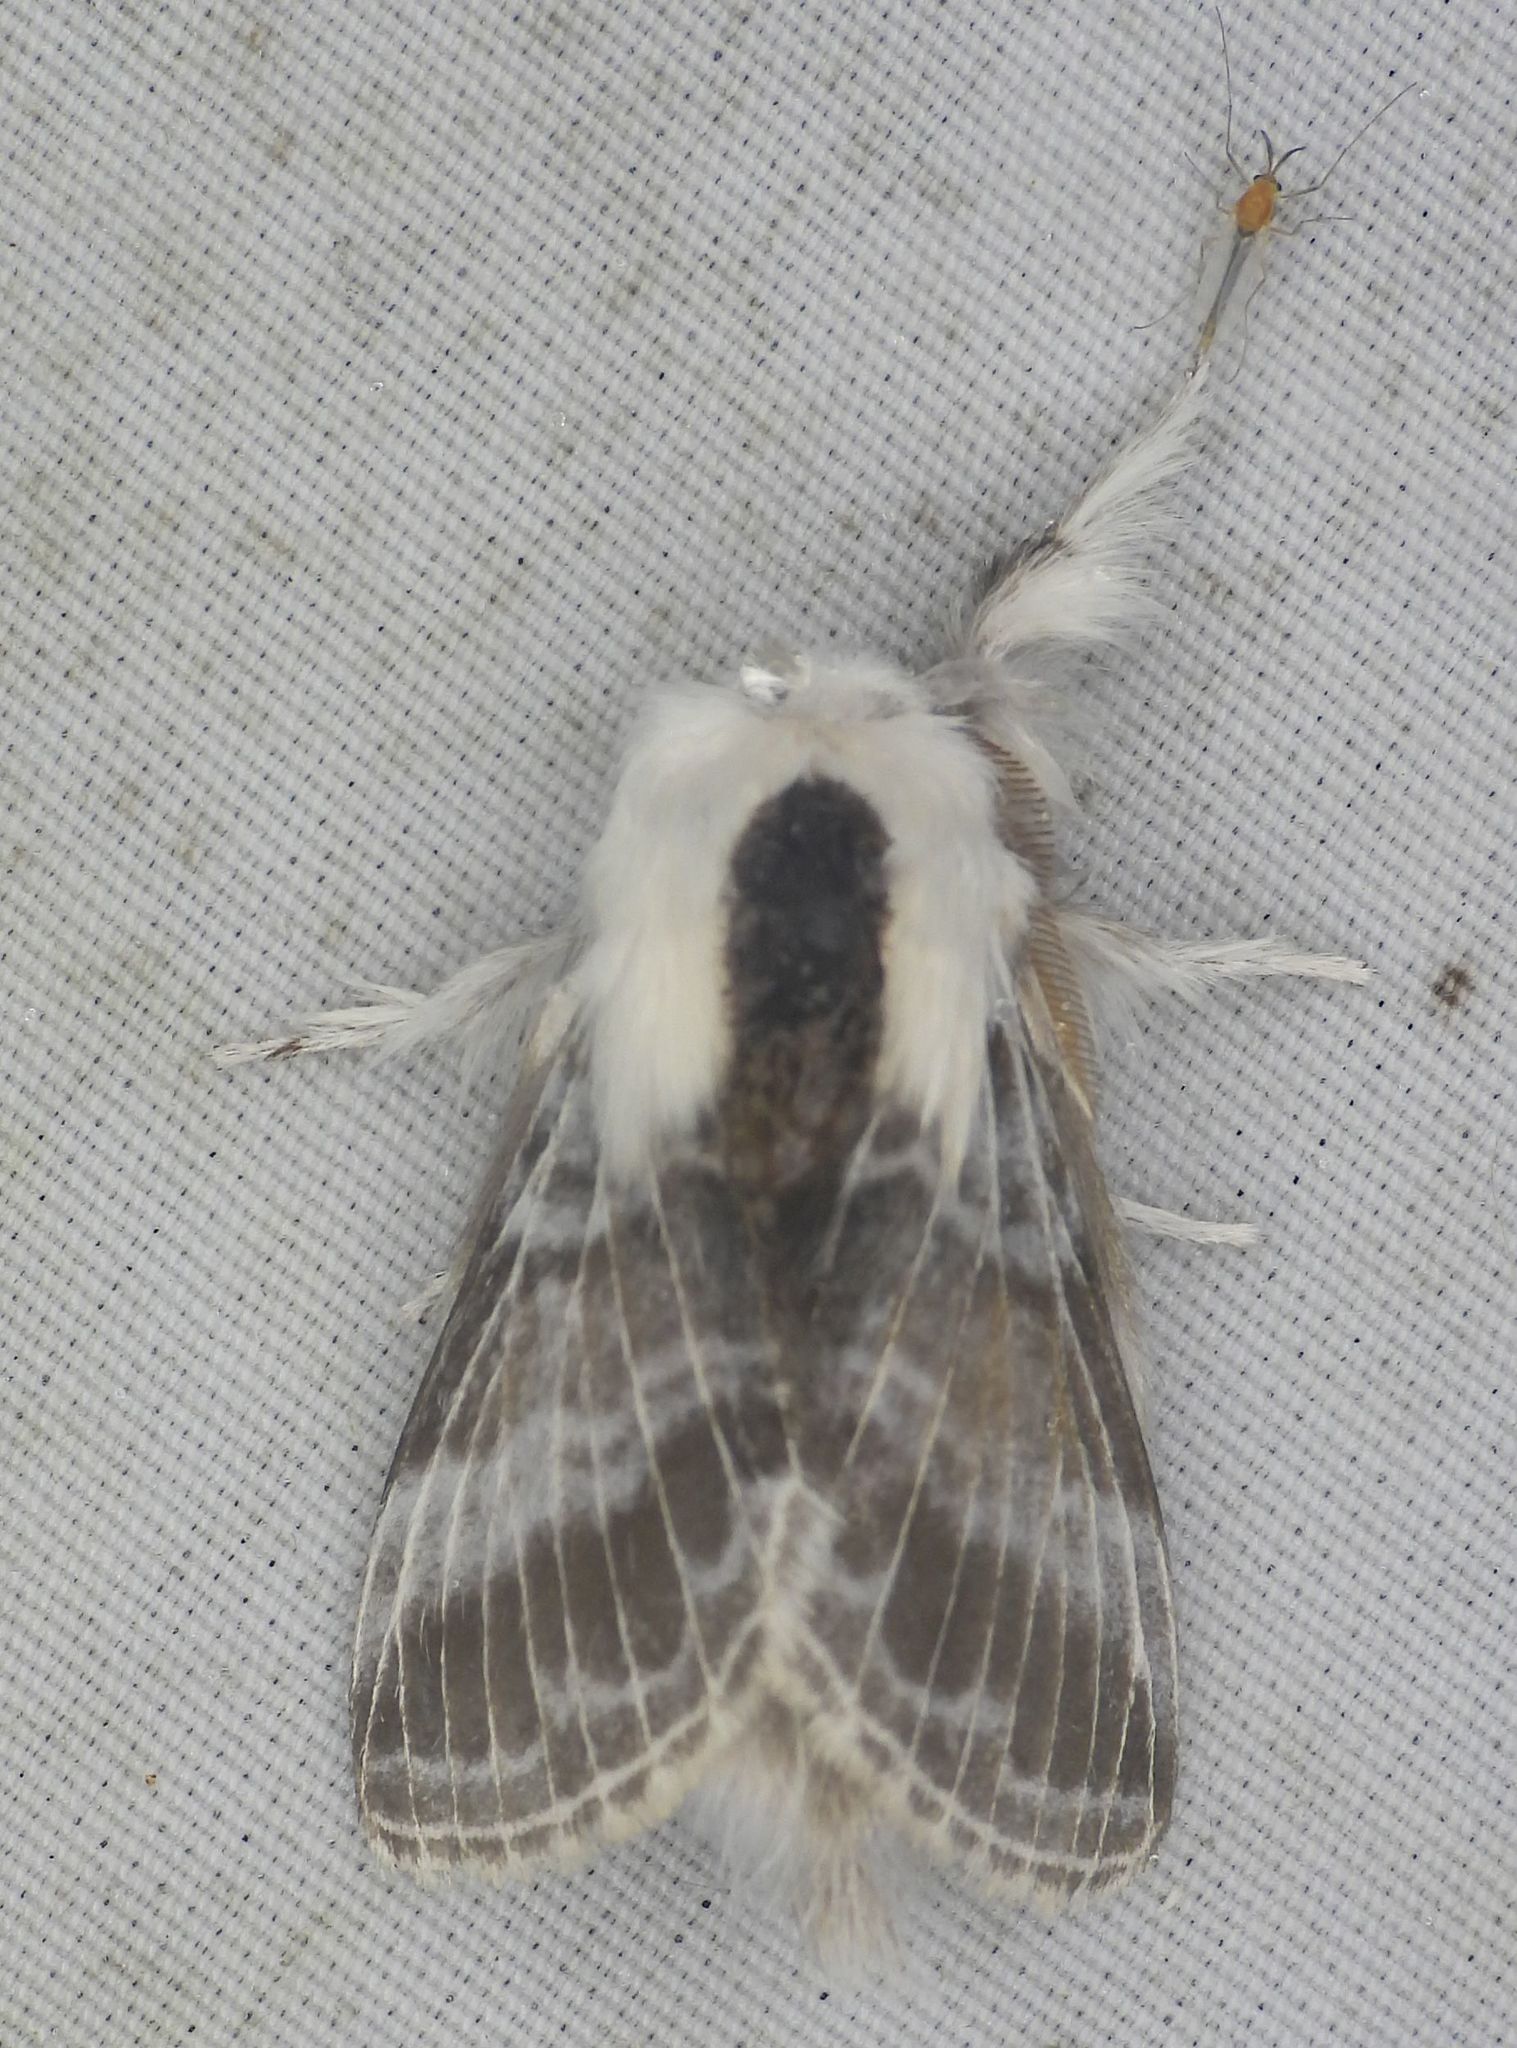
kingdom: Animalia
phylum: Arthropoda
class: Insecta
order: Lepidoptera
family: Lasiocampidae
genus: Tolype
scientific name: Tolype velleda
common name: Large tolype moth
